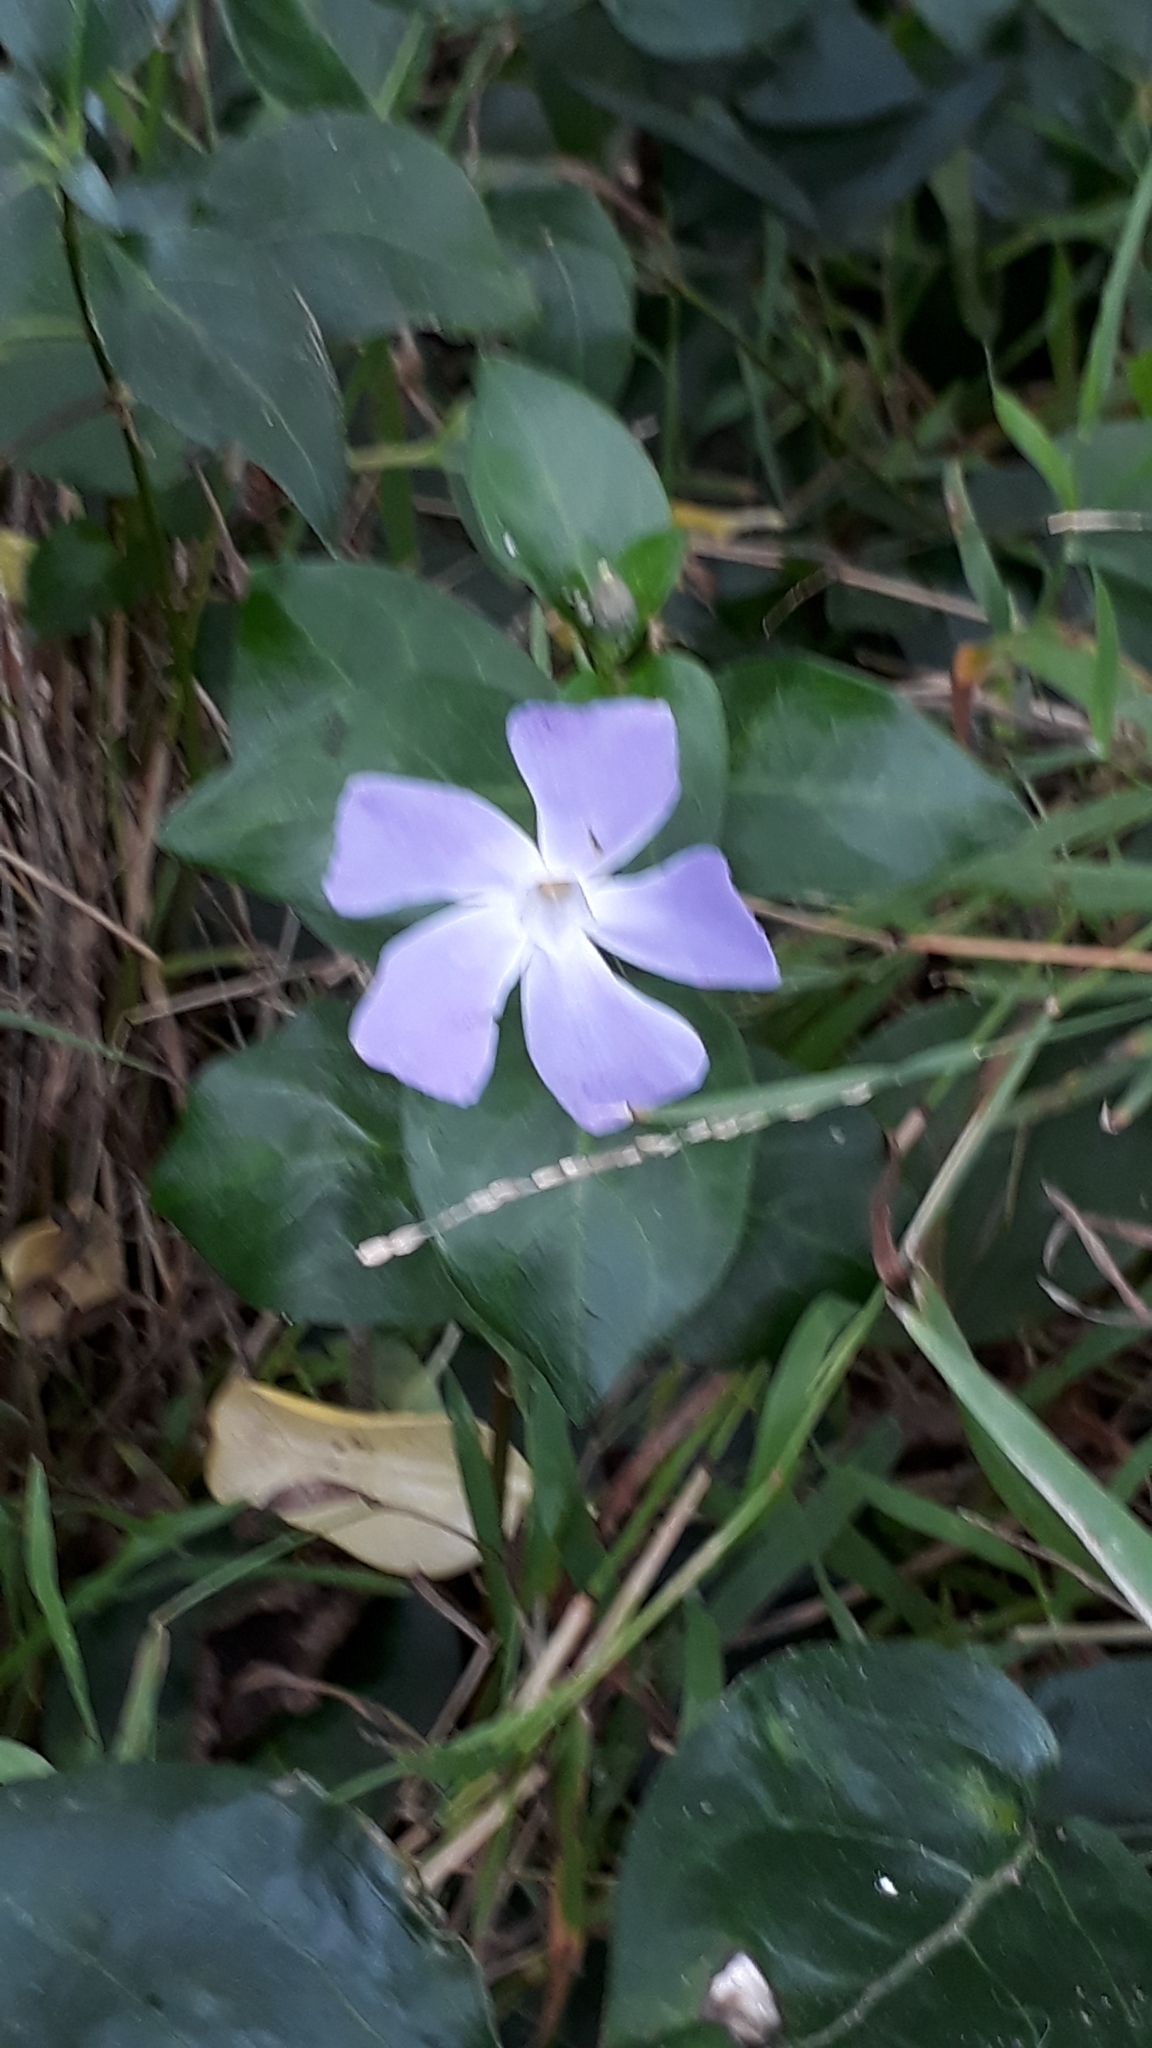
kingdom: Plantae
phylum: Tracheophyta
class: Magnoliopsida
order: Gentianales
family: Apocynaceae
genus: Vinca
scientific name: Vinca major
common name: Greater periwinkle
